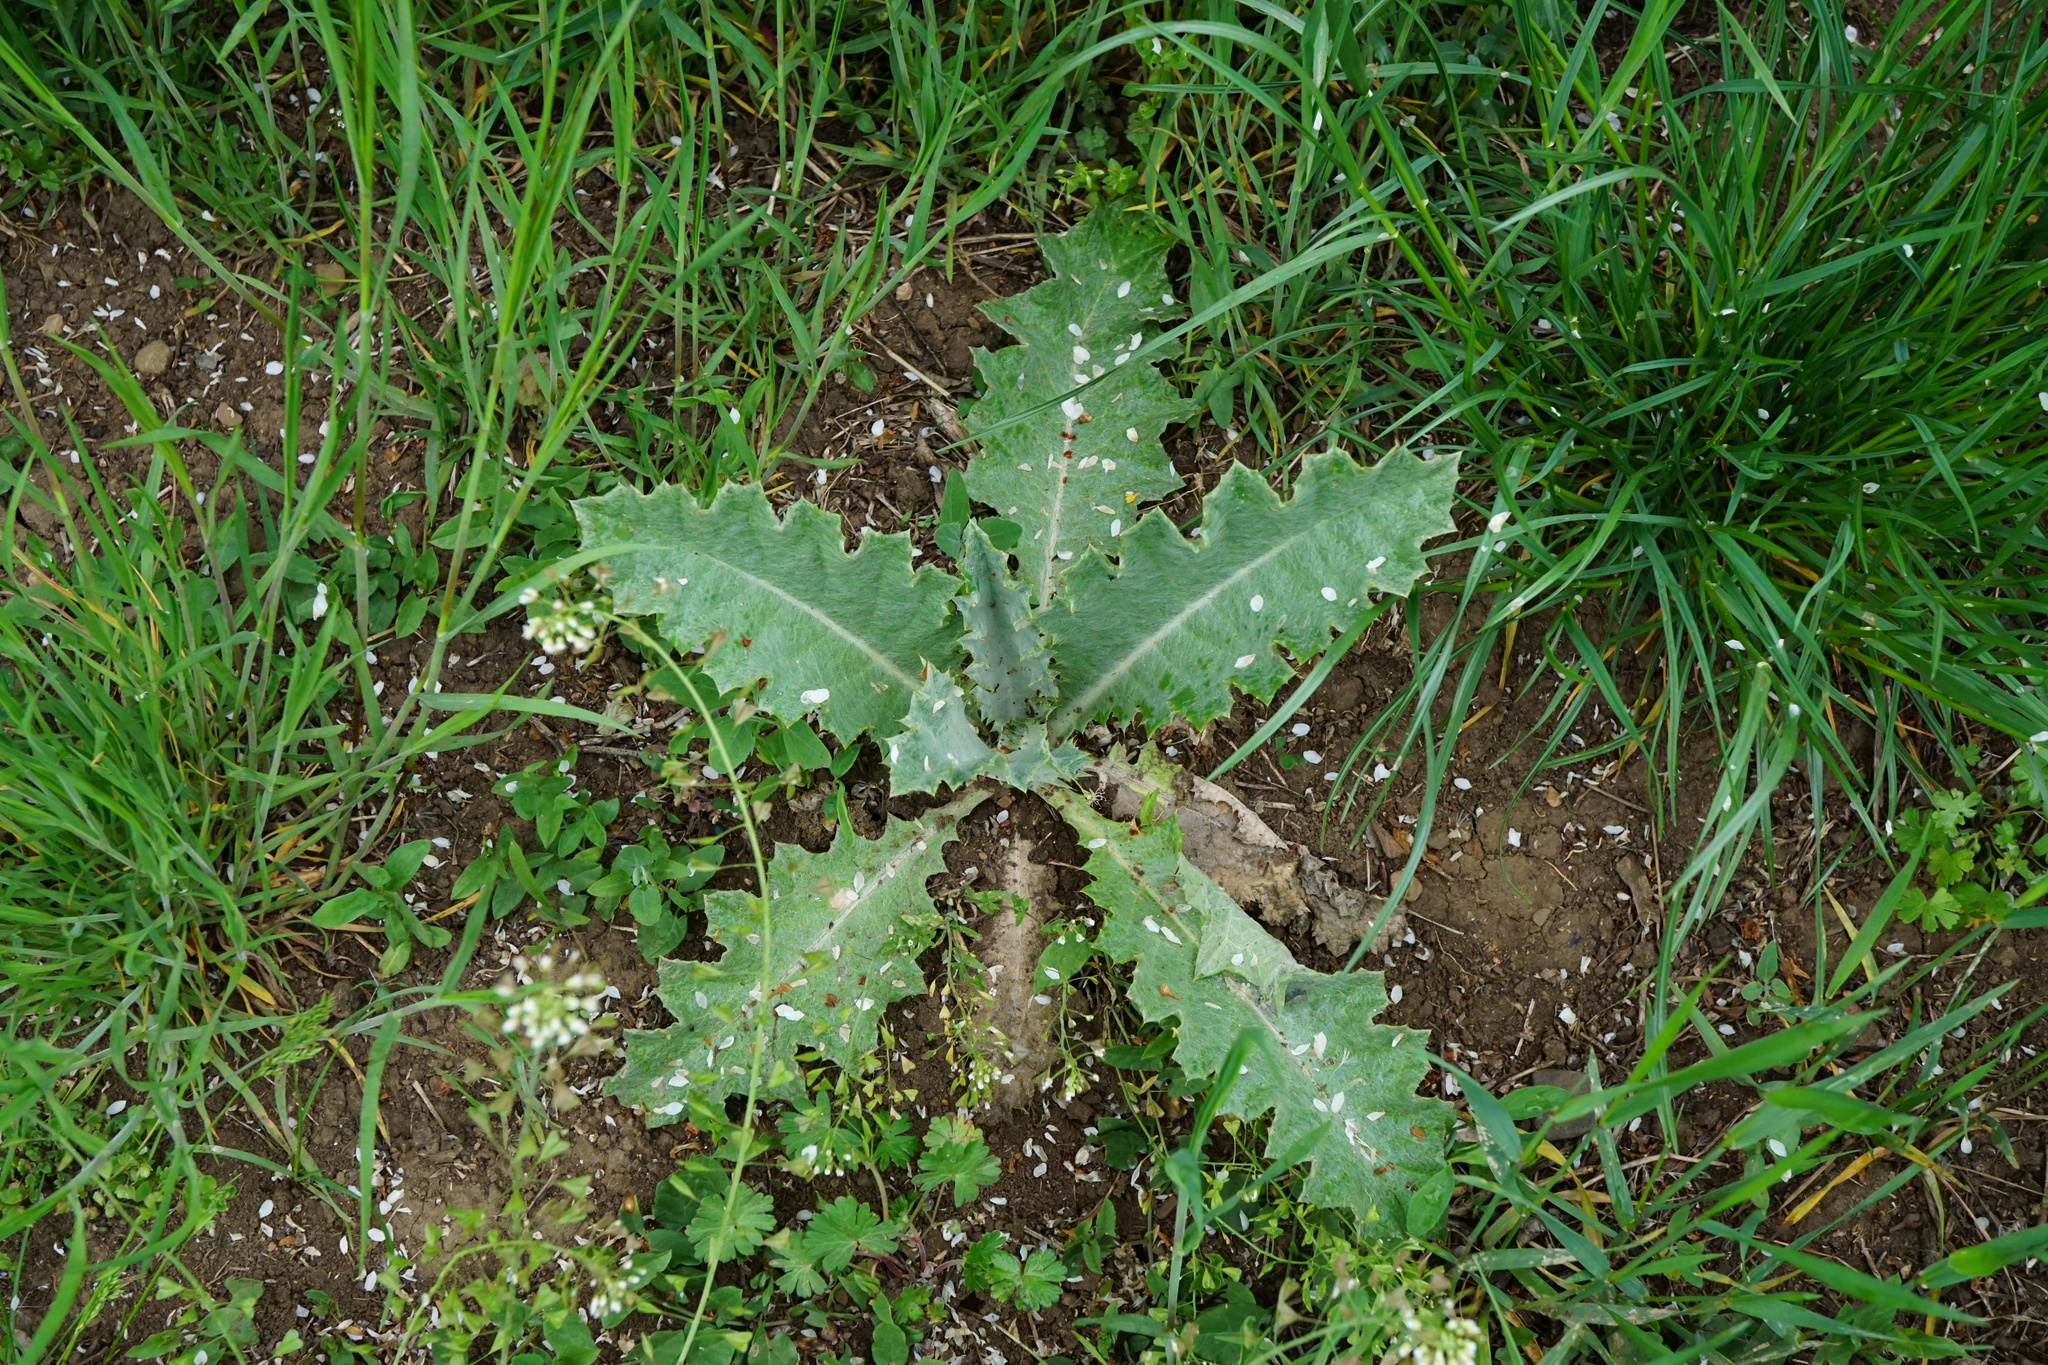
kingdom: Plantae
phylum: Tracheophyta
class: Magnoliopsida
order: Asterales
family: Asteraceae
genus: Onopordum
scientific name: Onopordum acanthium
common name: Scotch thistle
